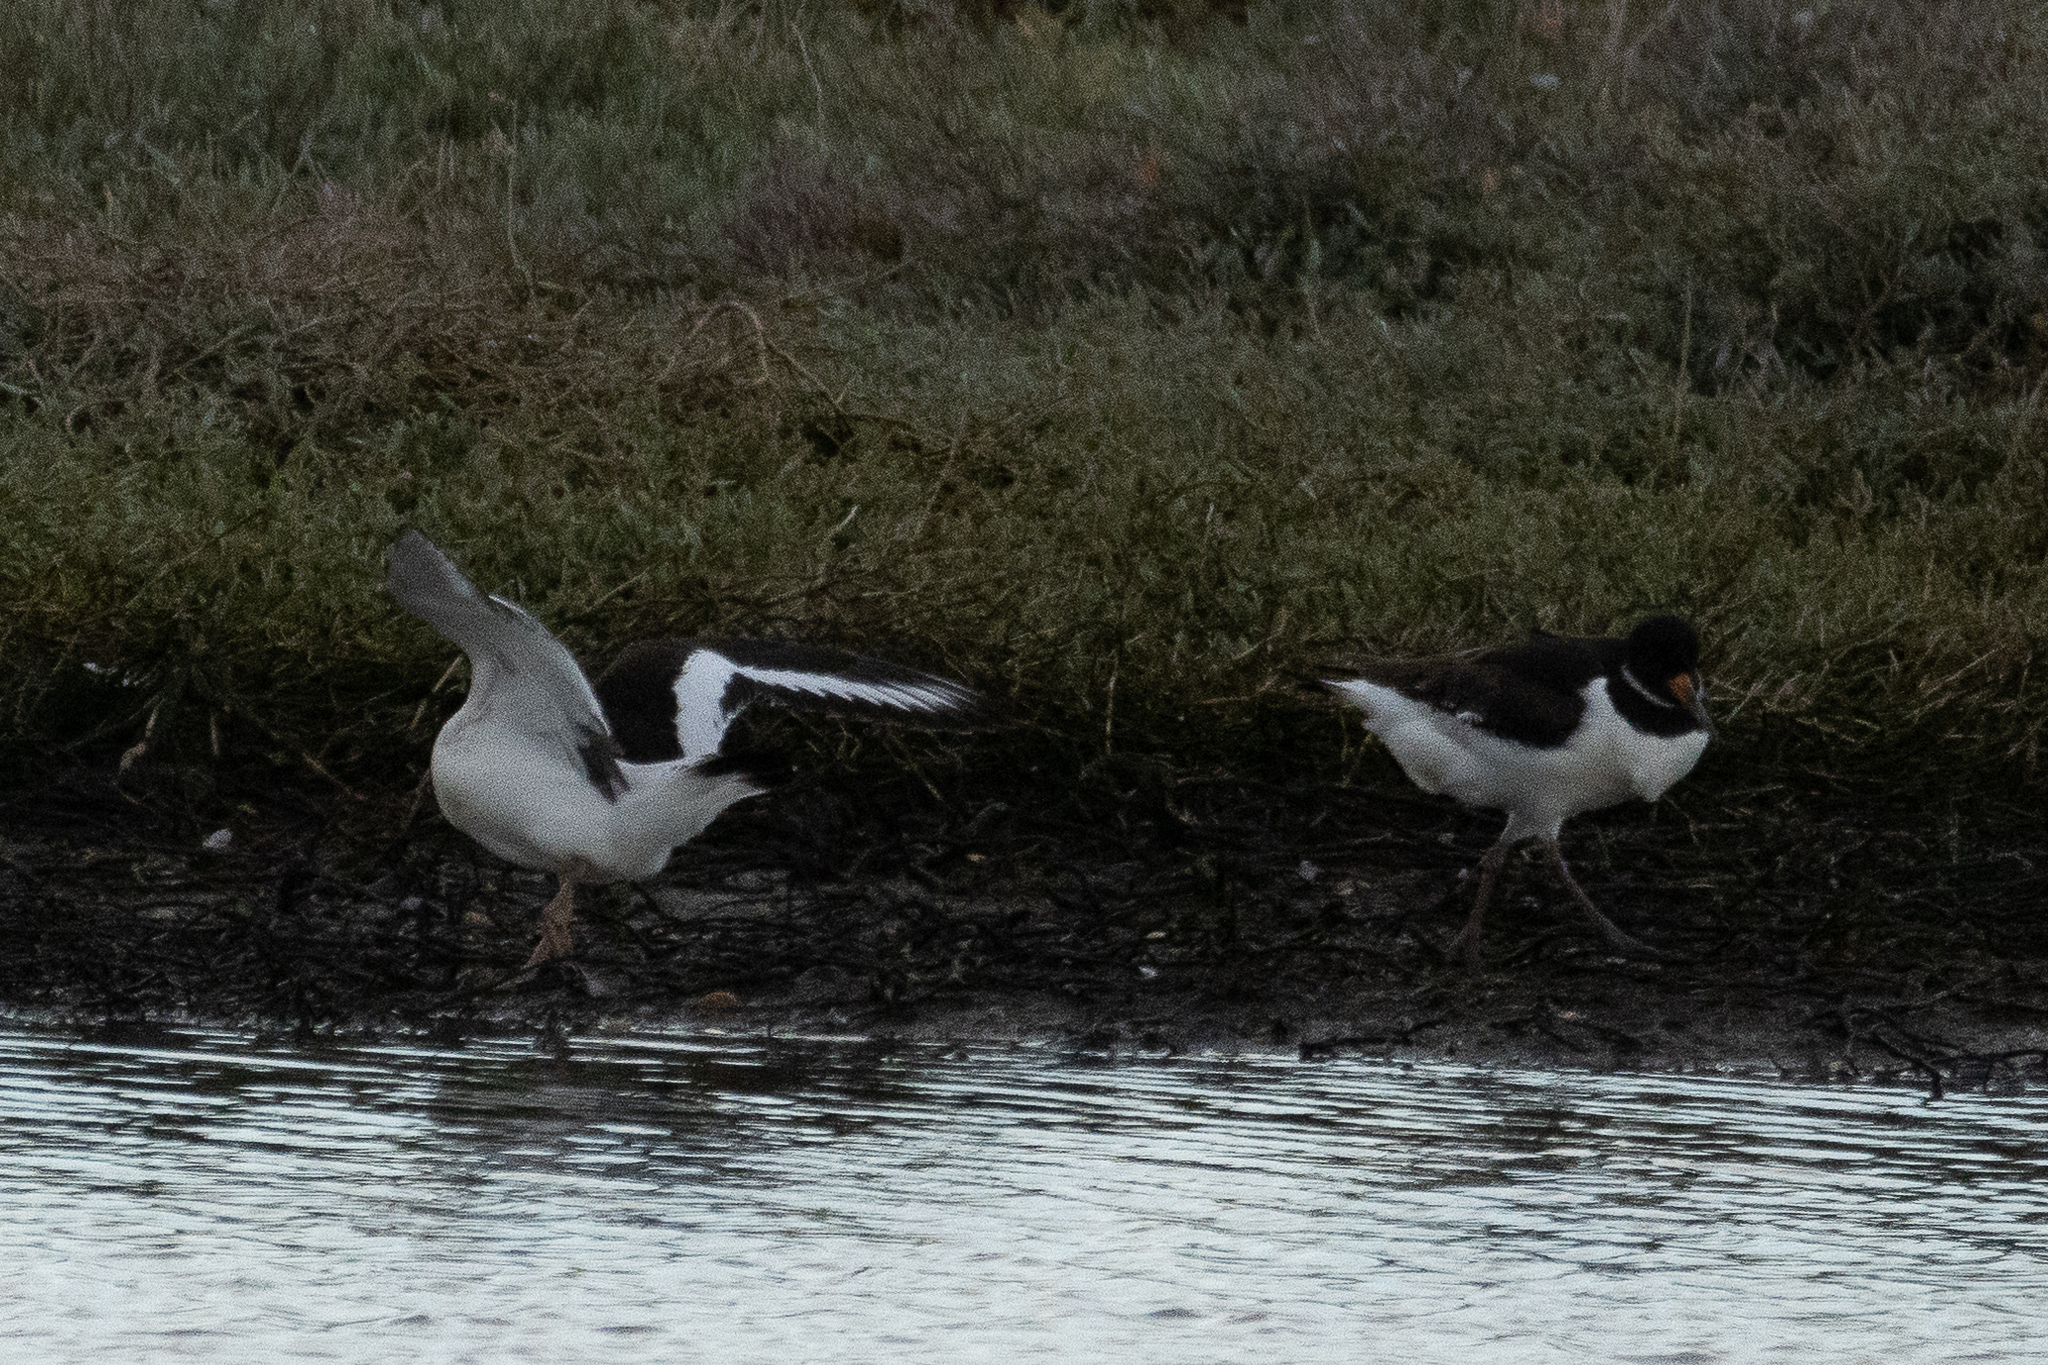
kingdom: Animalia
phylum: Chordata
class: Aves
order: Charadriiformes
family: Haematopodidae
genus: Haematopus
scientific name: Haematopus ostralegus
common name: Eurasian oystercatcher
